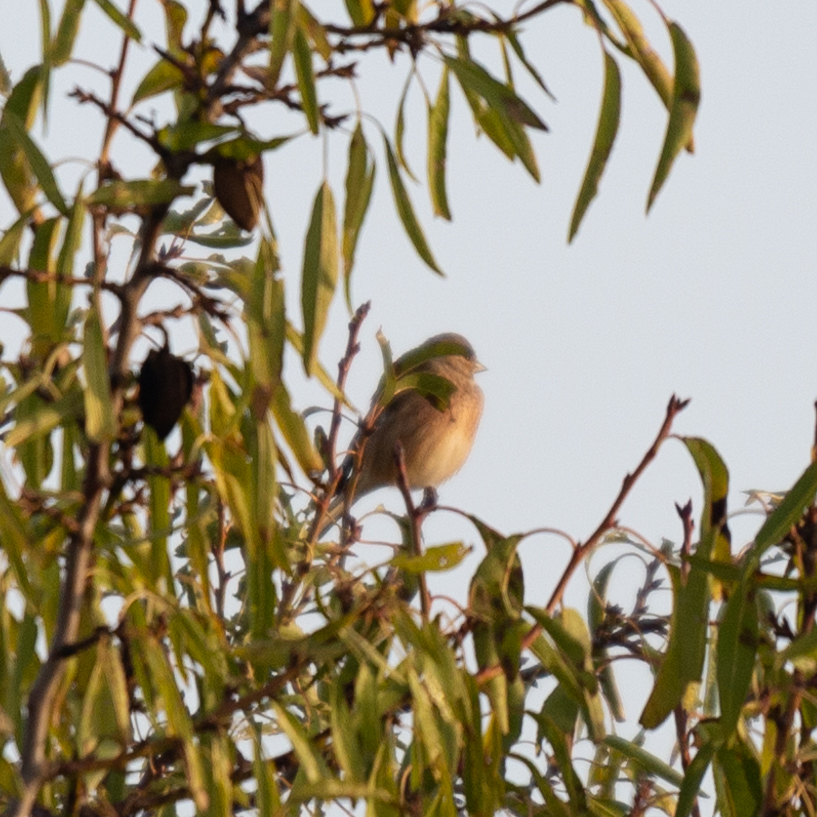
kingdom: Animalia
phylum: Chordata
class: Aves
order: Passeriformes
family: Fringillidae
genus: Linaria
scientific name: Linaria cannabina
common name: Common linnet
